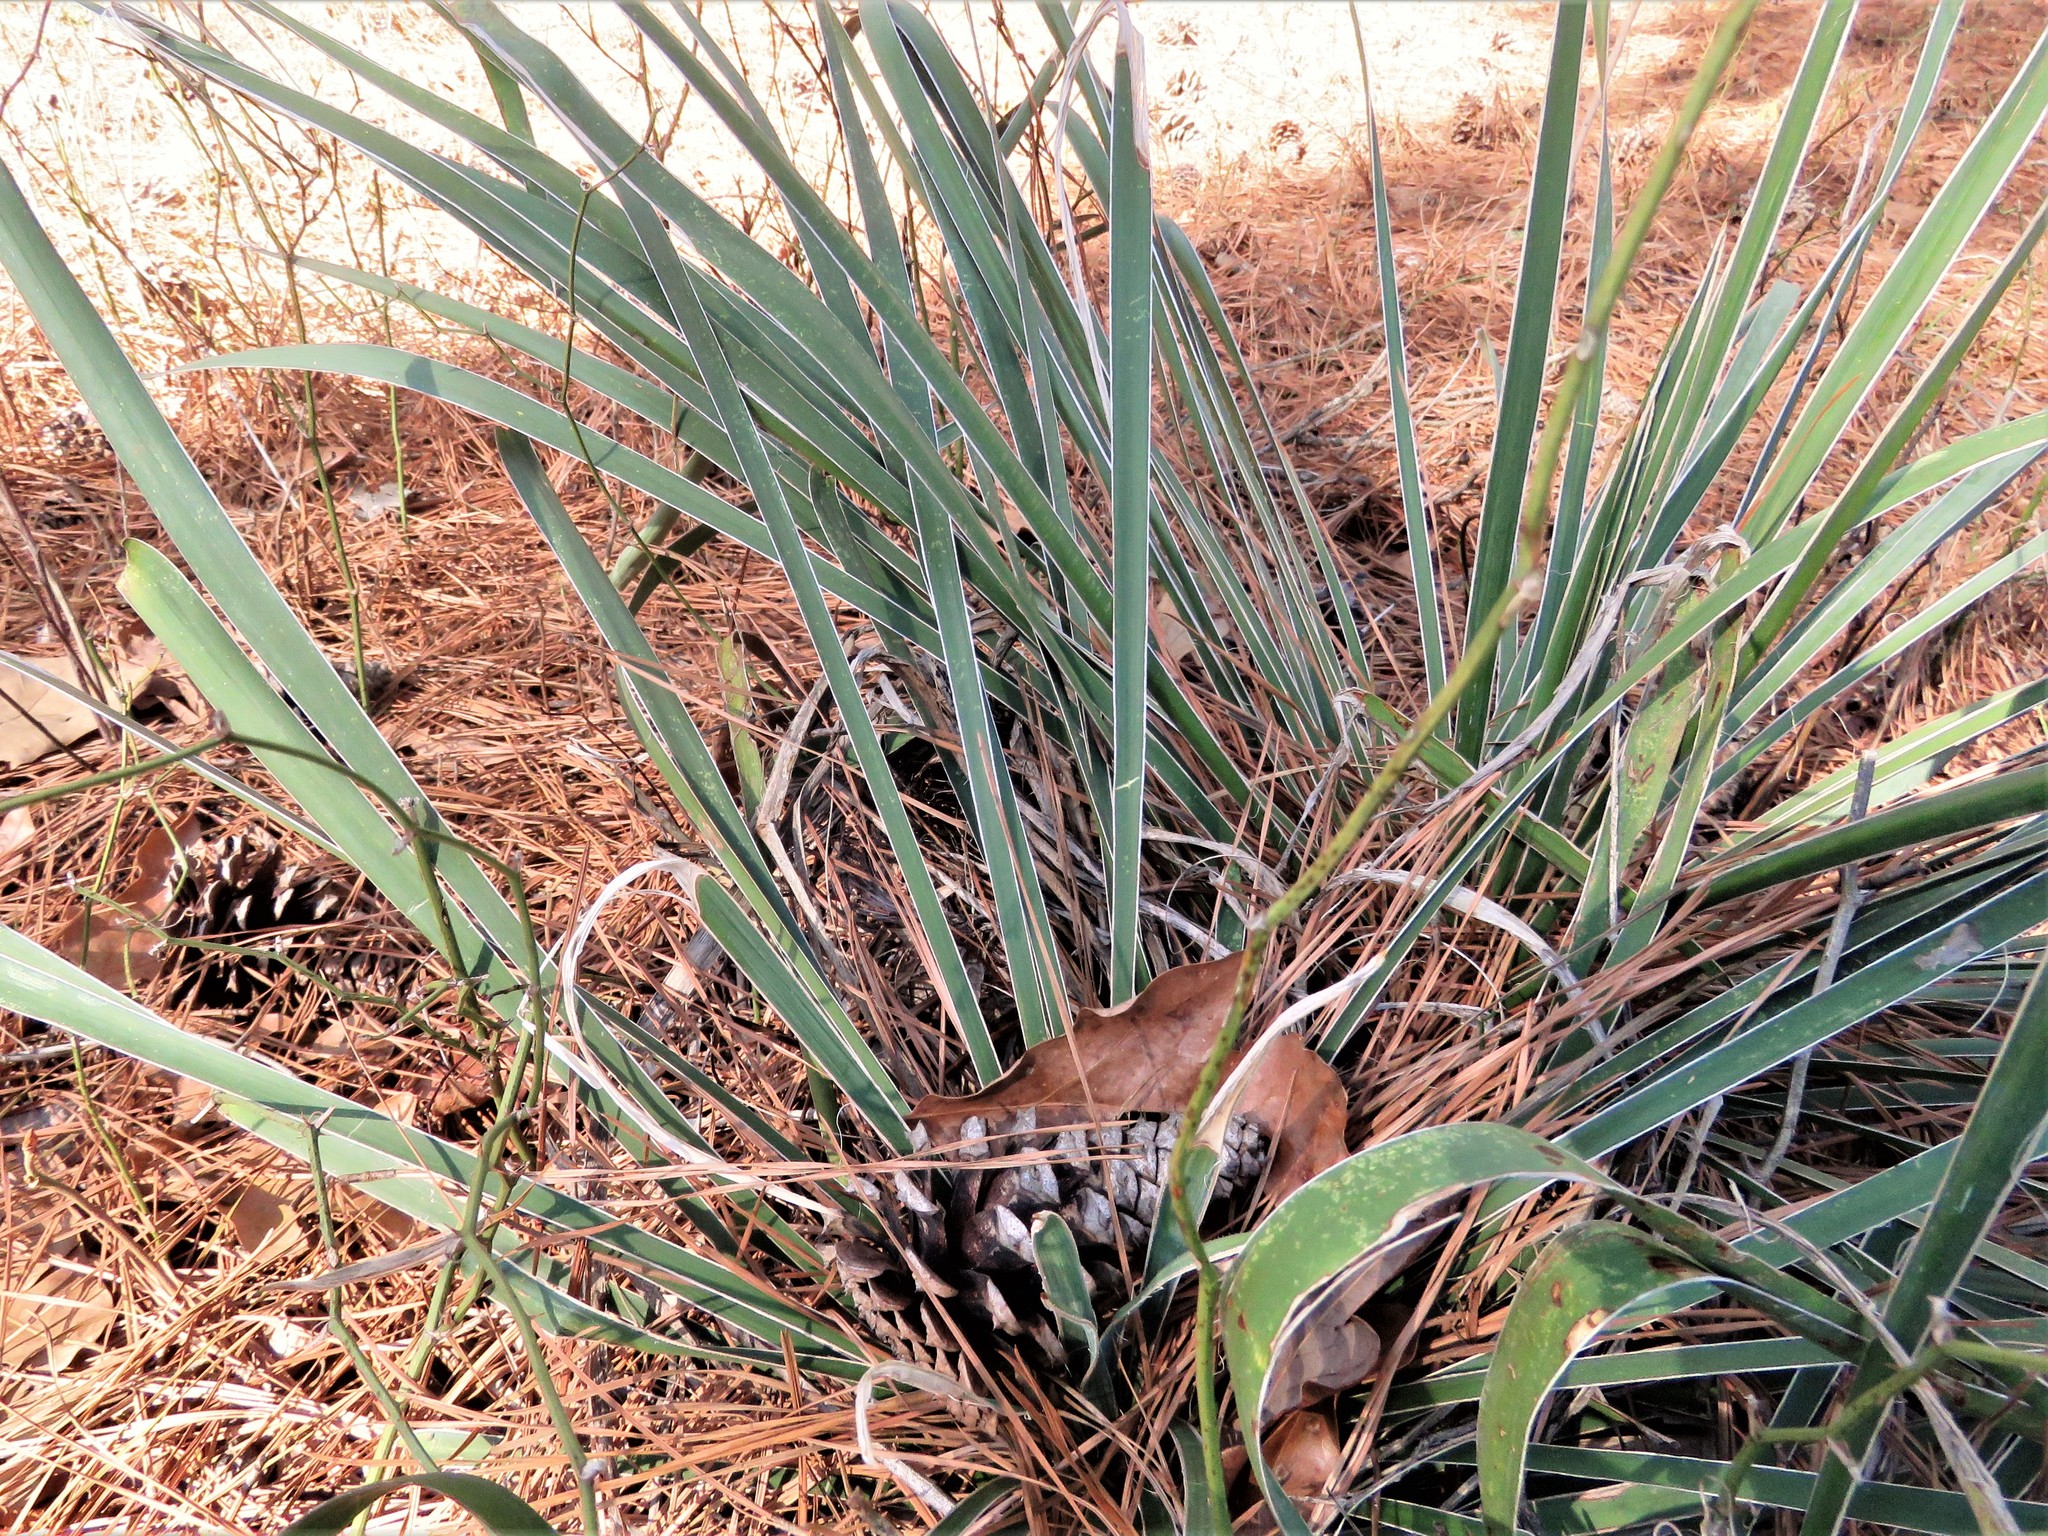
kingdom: Plantae
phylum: Tracheophyta
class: Liliopsida
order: Asparagales
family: Asparagaceae
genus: Yucca
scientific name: Yucca flaccida
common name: Adam's-needle
